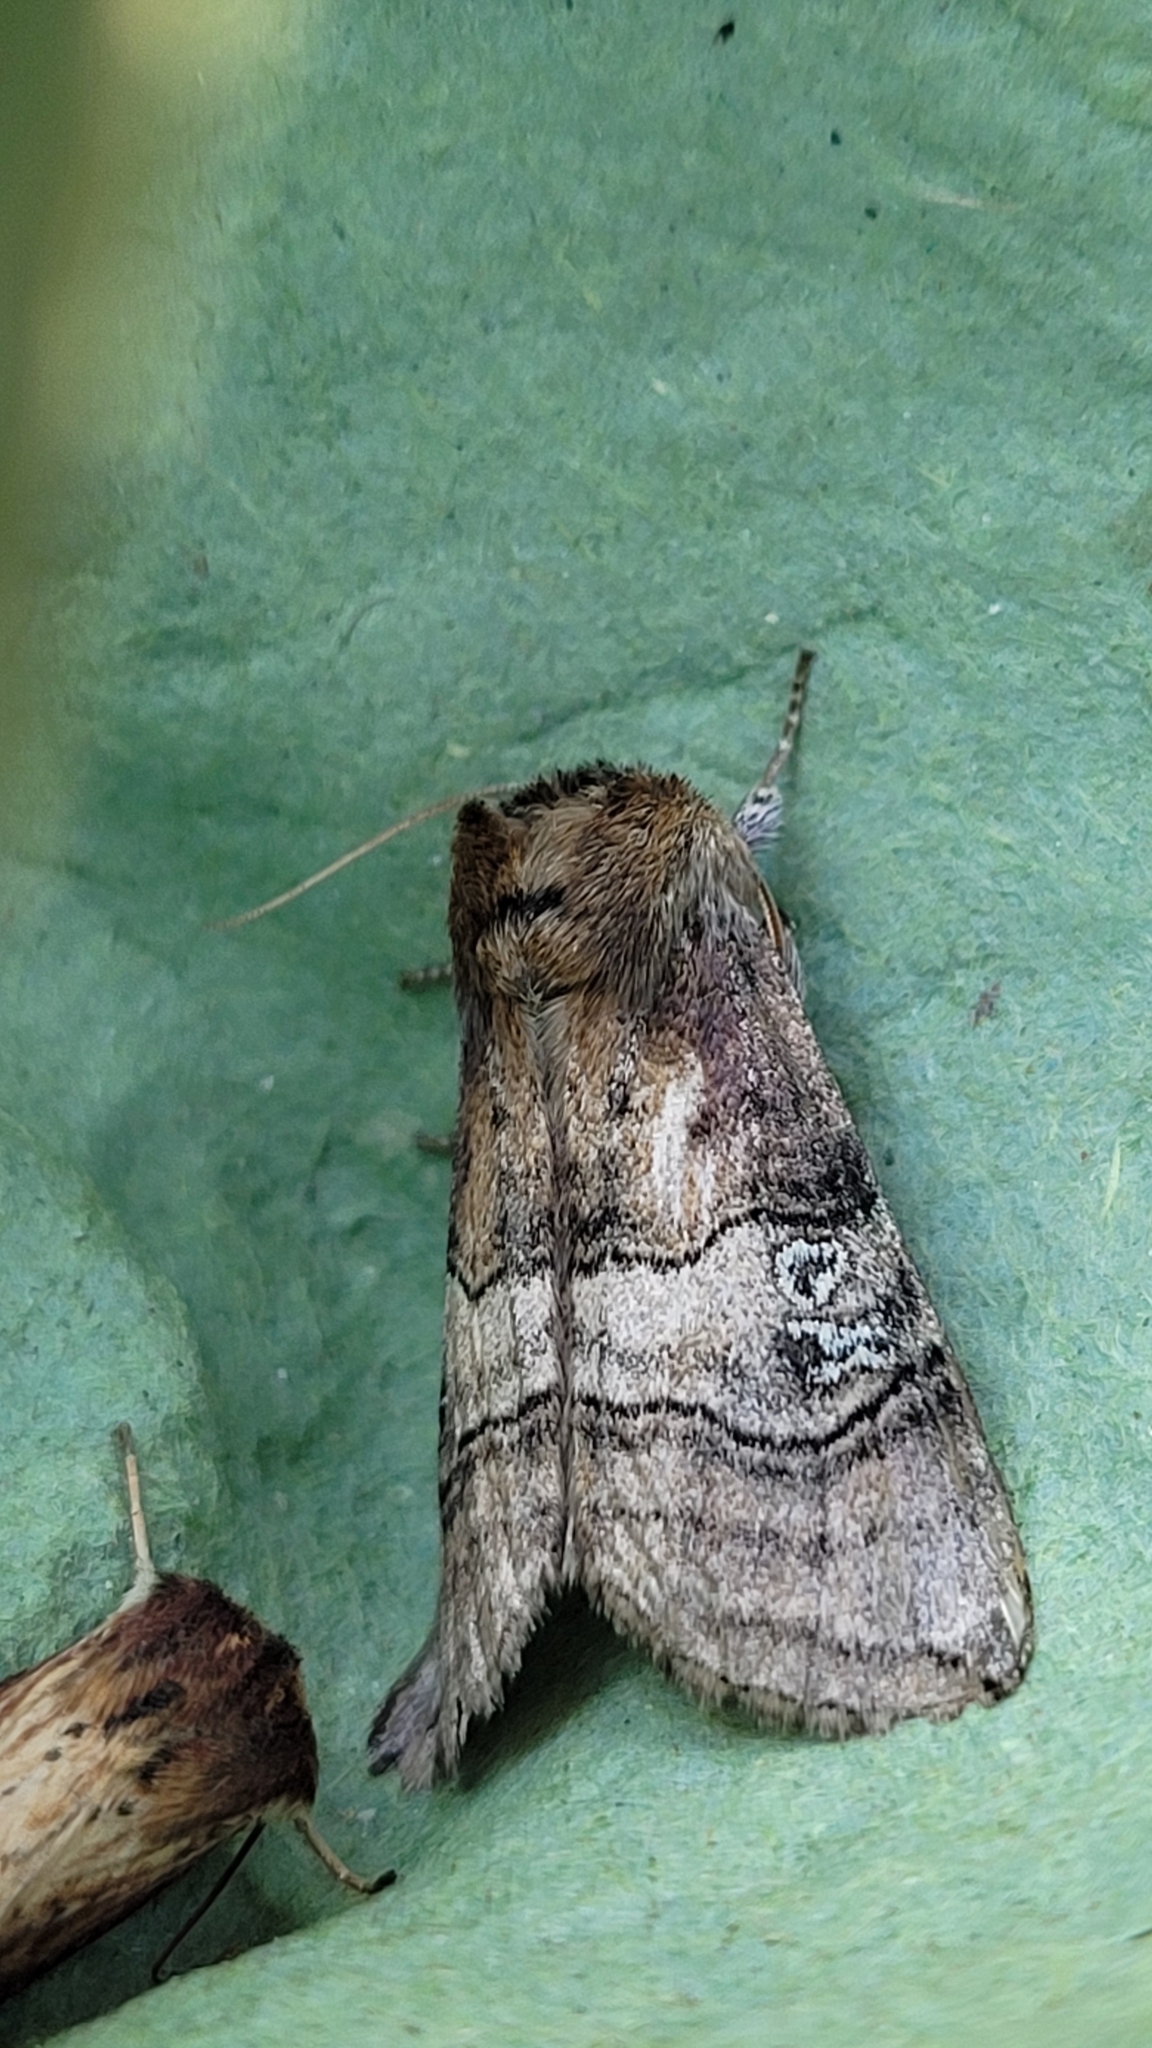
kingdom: Animalia
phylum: Arthropoda
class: Insecta
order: Lepidoptera
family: Drepanidae
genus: Tethea
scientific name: Tethea ocularis
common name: Figure of eighty
